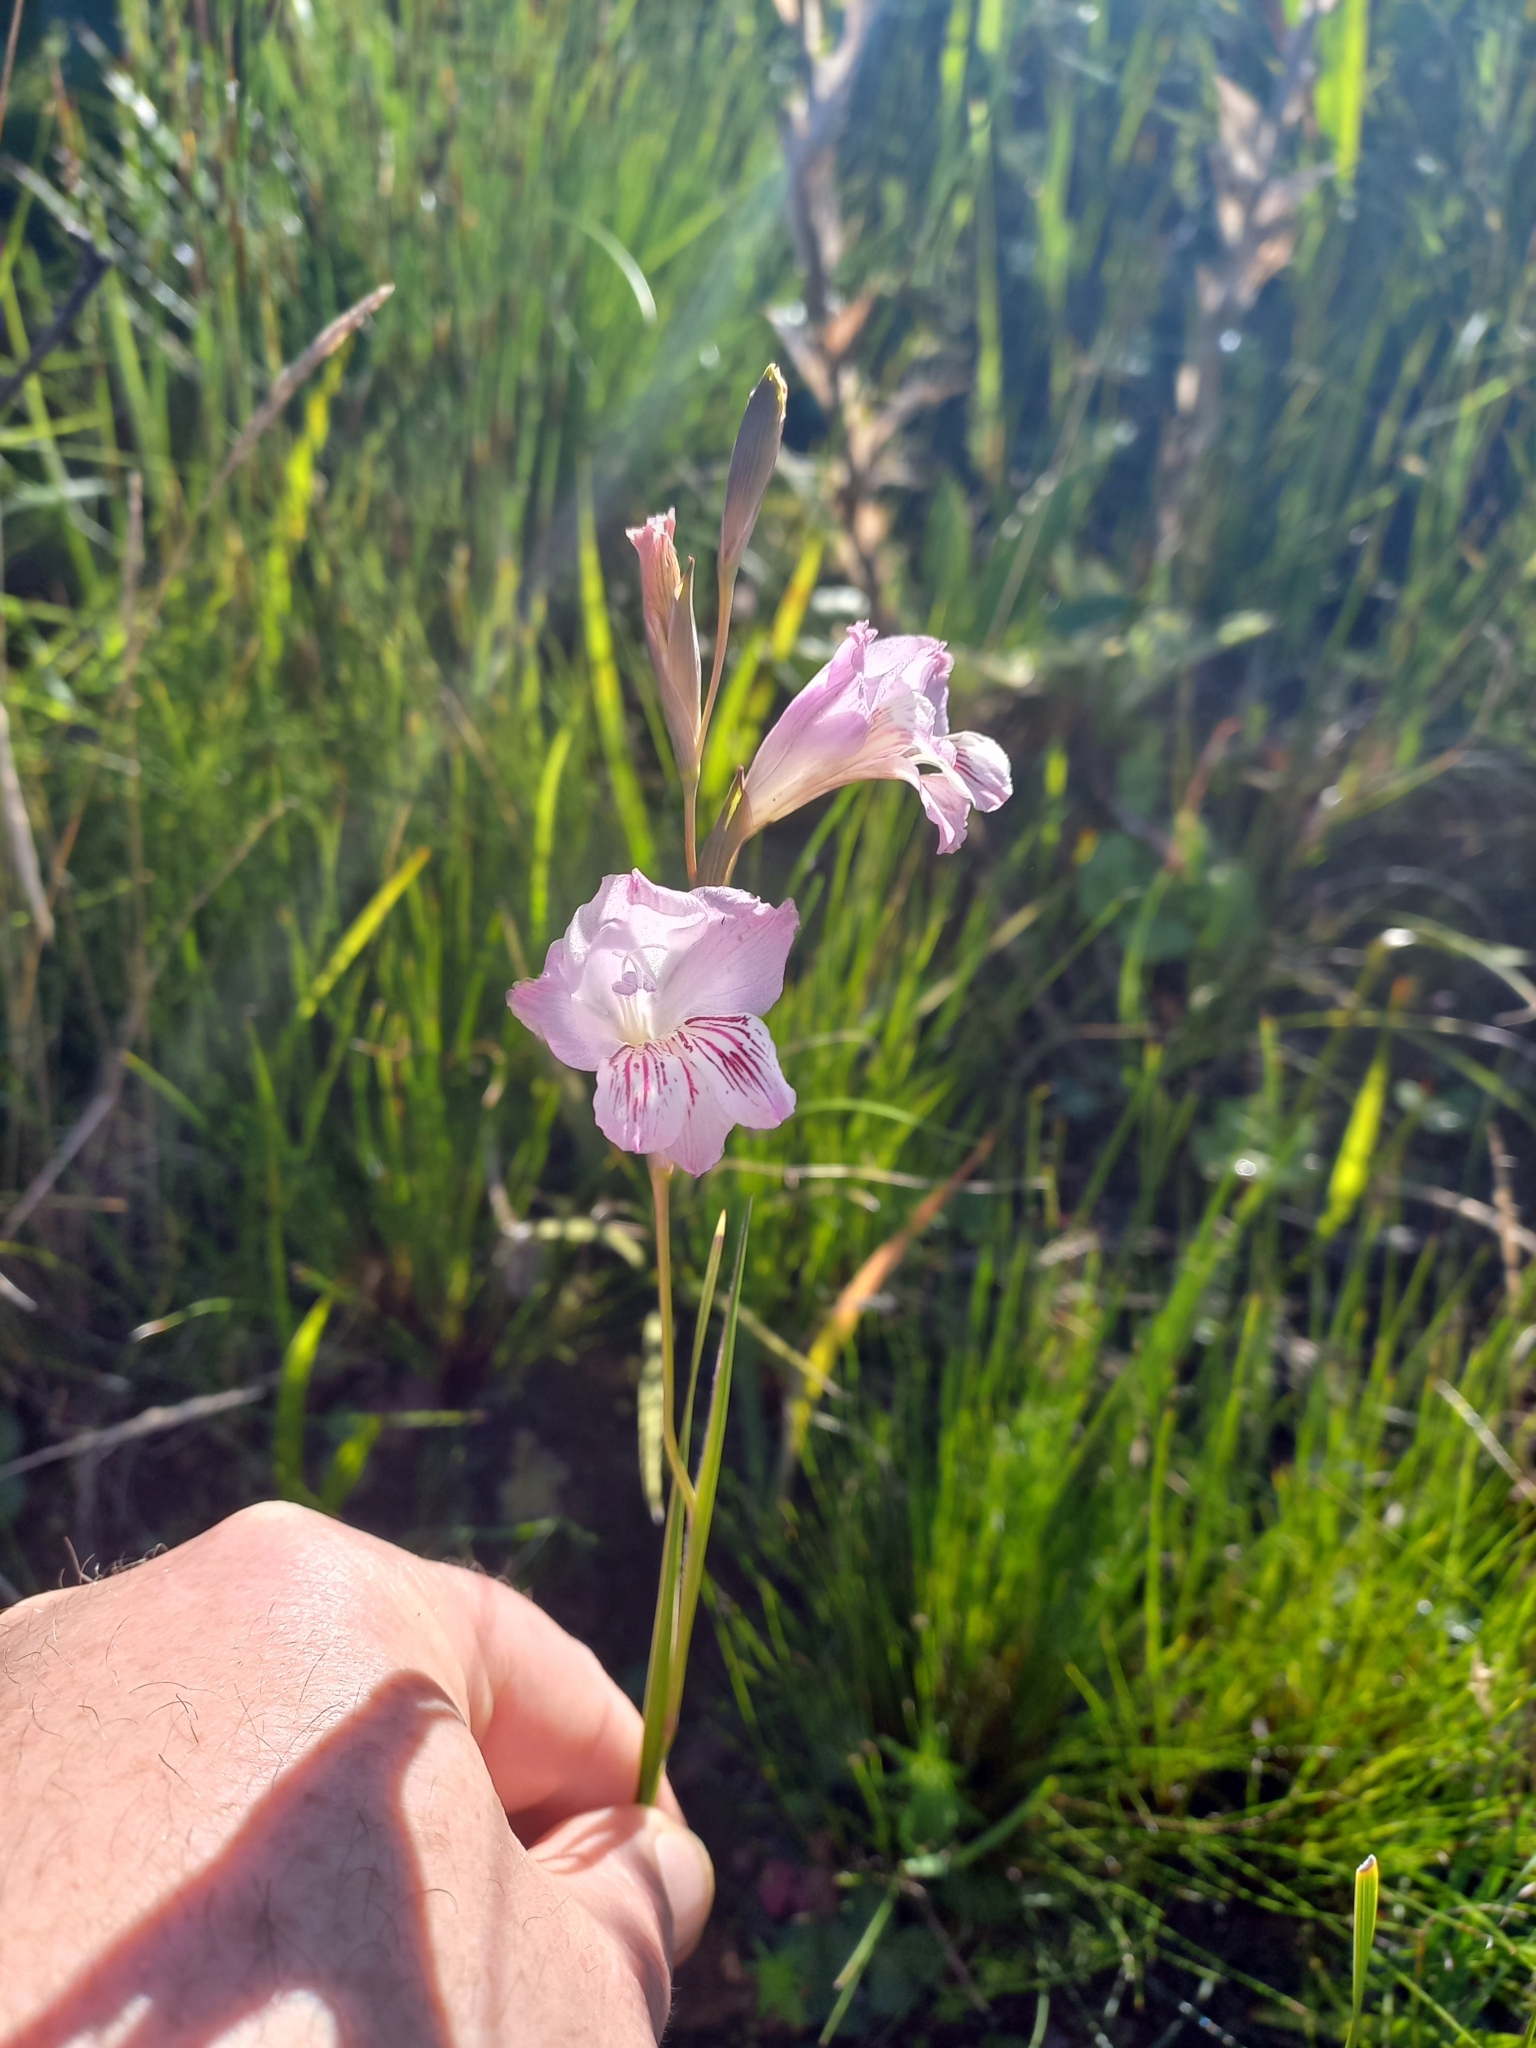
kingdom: Plantae
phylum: Tracheophyta
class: Liliopsida
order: Asparagales
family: Iridaceae
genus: Gladiolus
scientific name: Gladiolus hirsutus
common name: Small pink afrikaner
